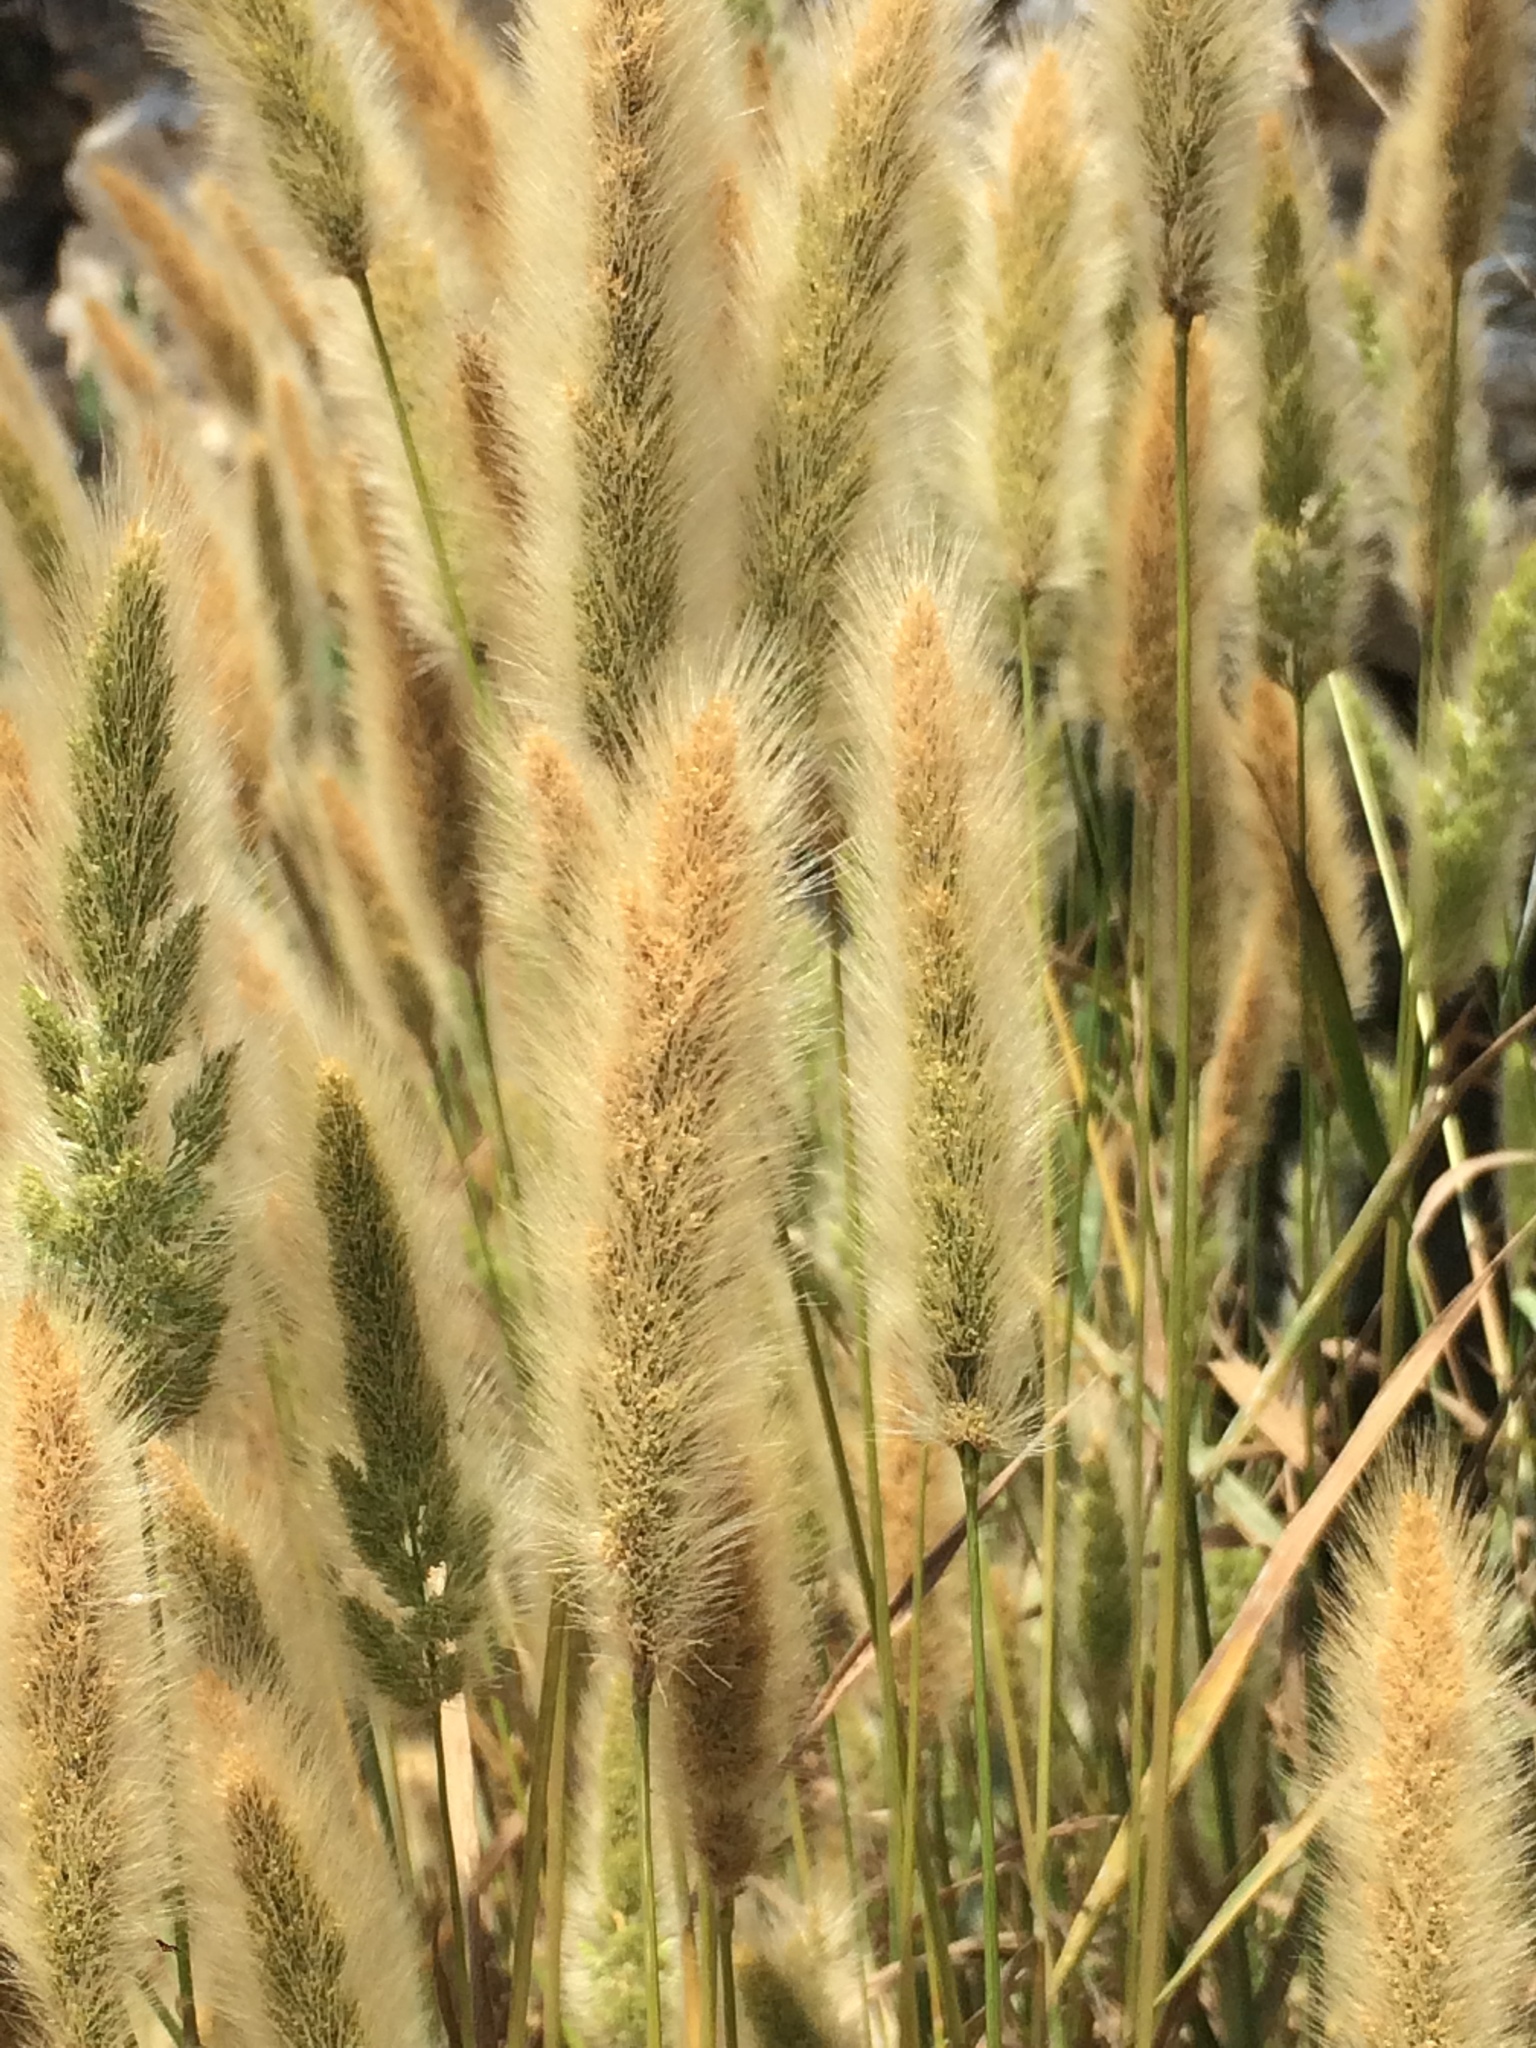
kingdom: Plantae
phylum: Tracheophyta
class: Liliopsida
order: Poales
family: Poaceae
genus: Polypogon
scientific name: Polypogon monspeliensis
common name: Annual rabbitsfoot grass
